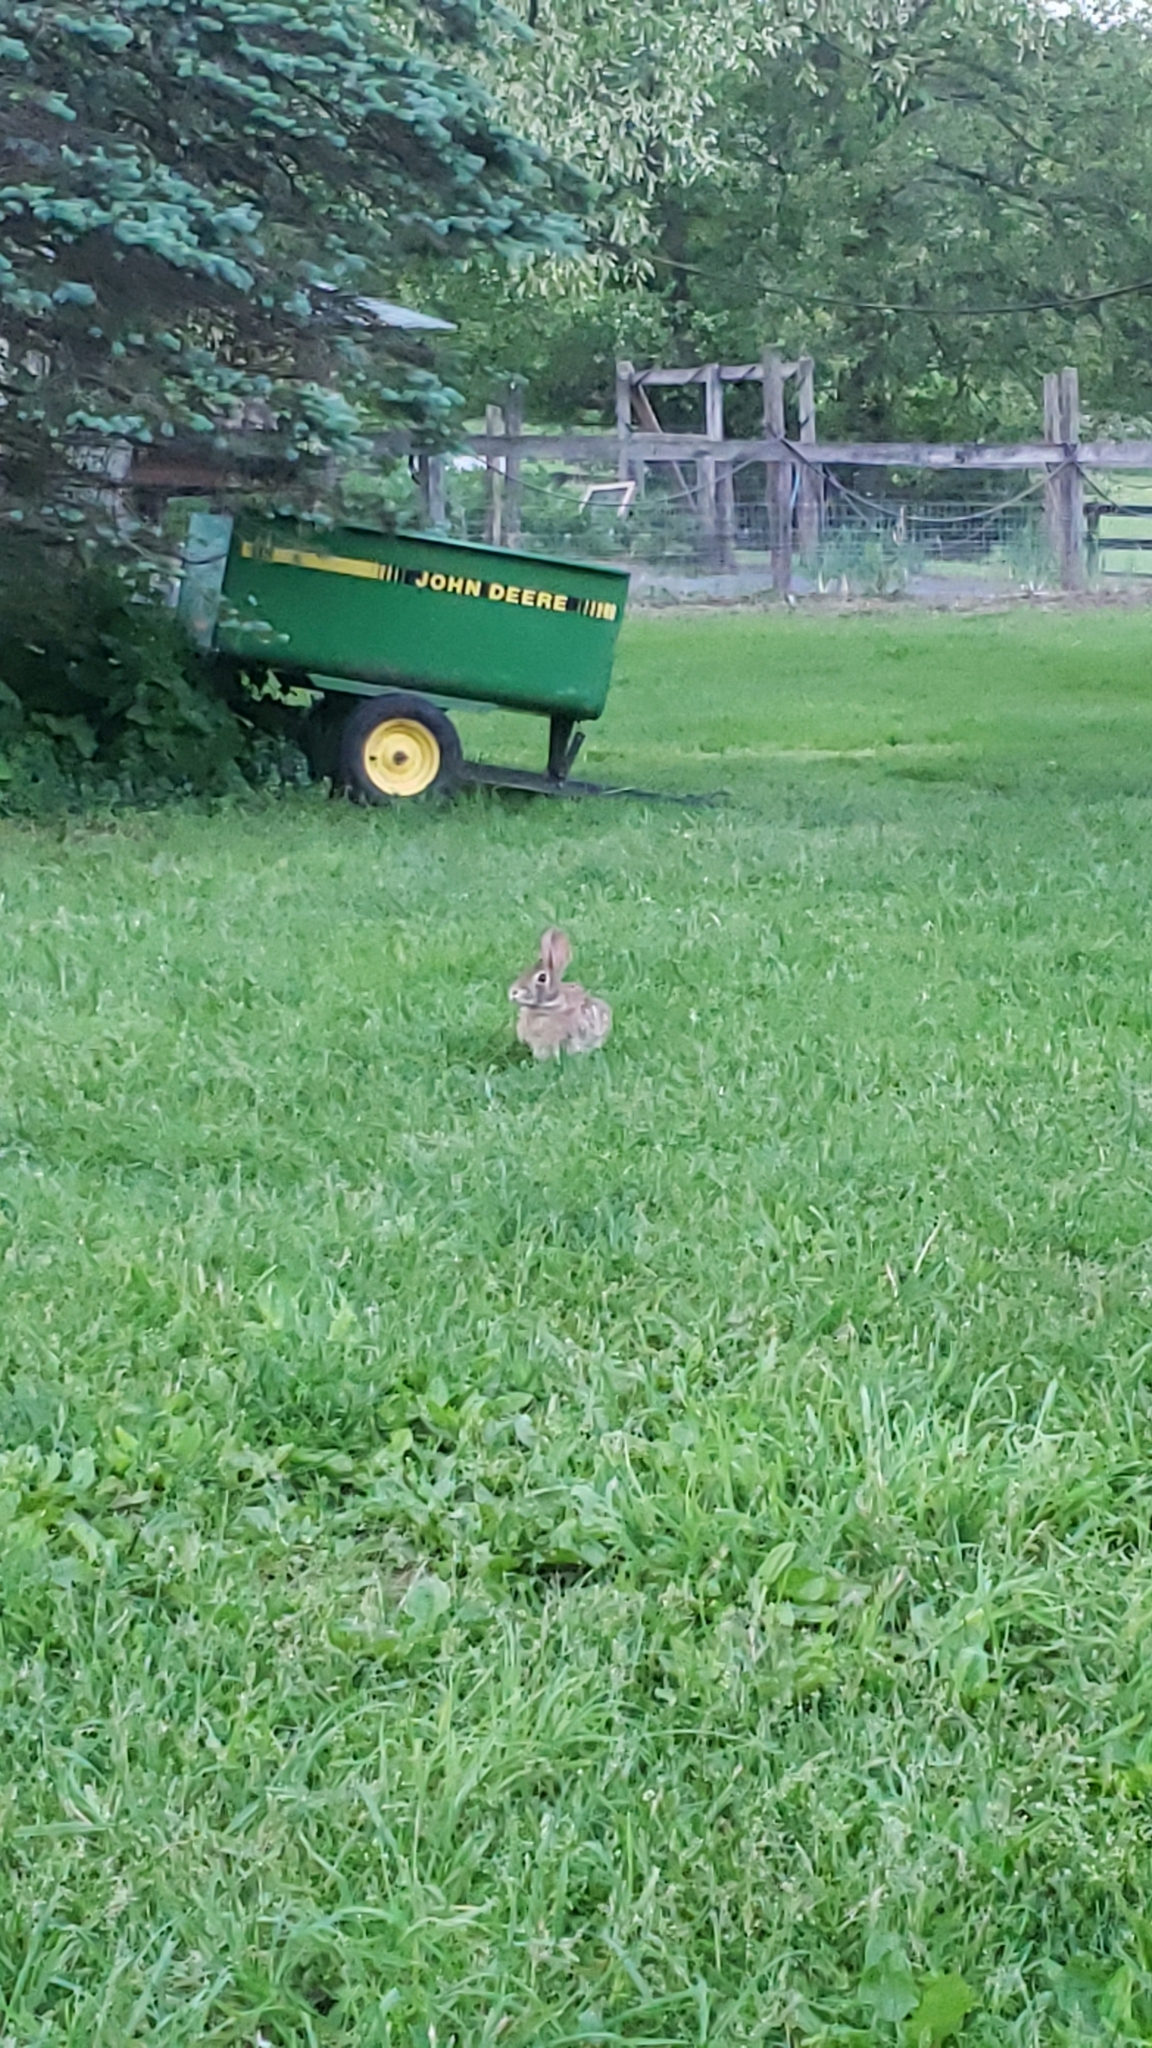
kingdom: Animalia
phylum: Chordata
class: Mammalia
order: Lagomorpha
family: Leporidae
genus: Sylvilagus
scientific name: Sylvilagus floridanus
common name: Eastern cottontail
